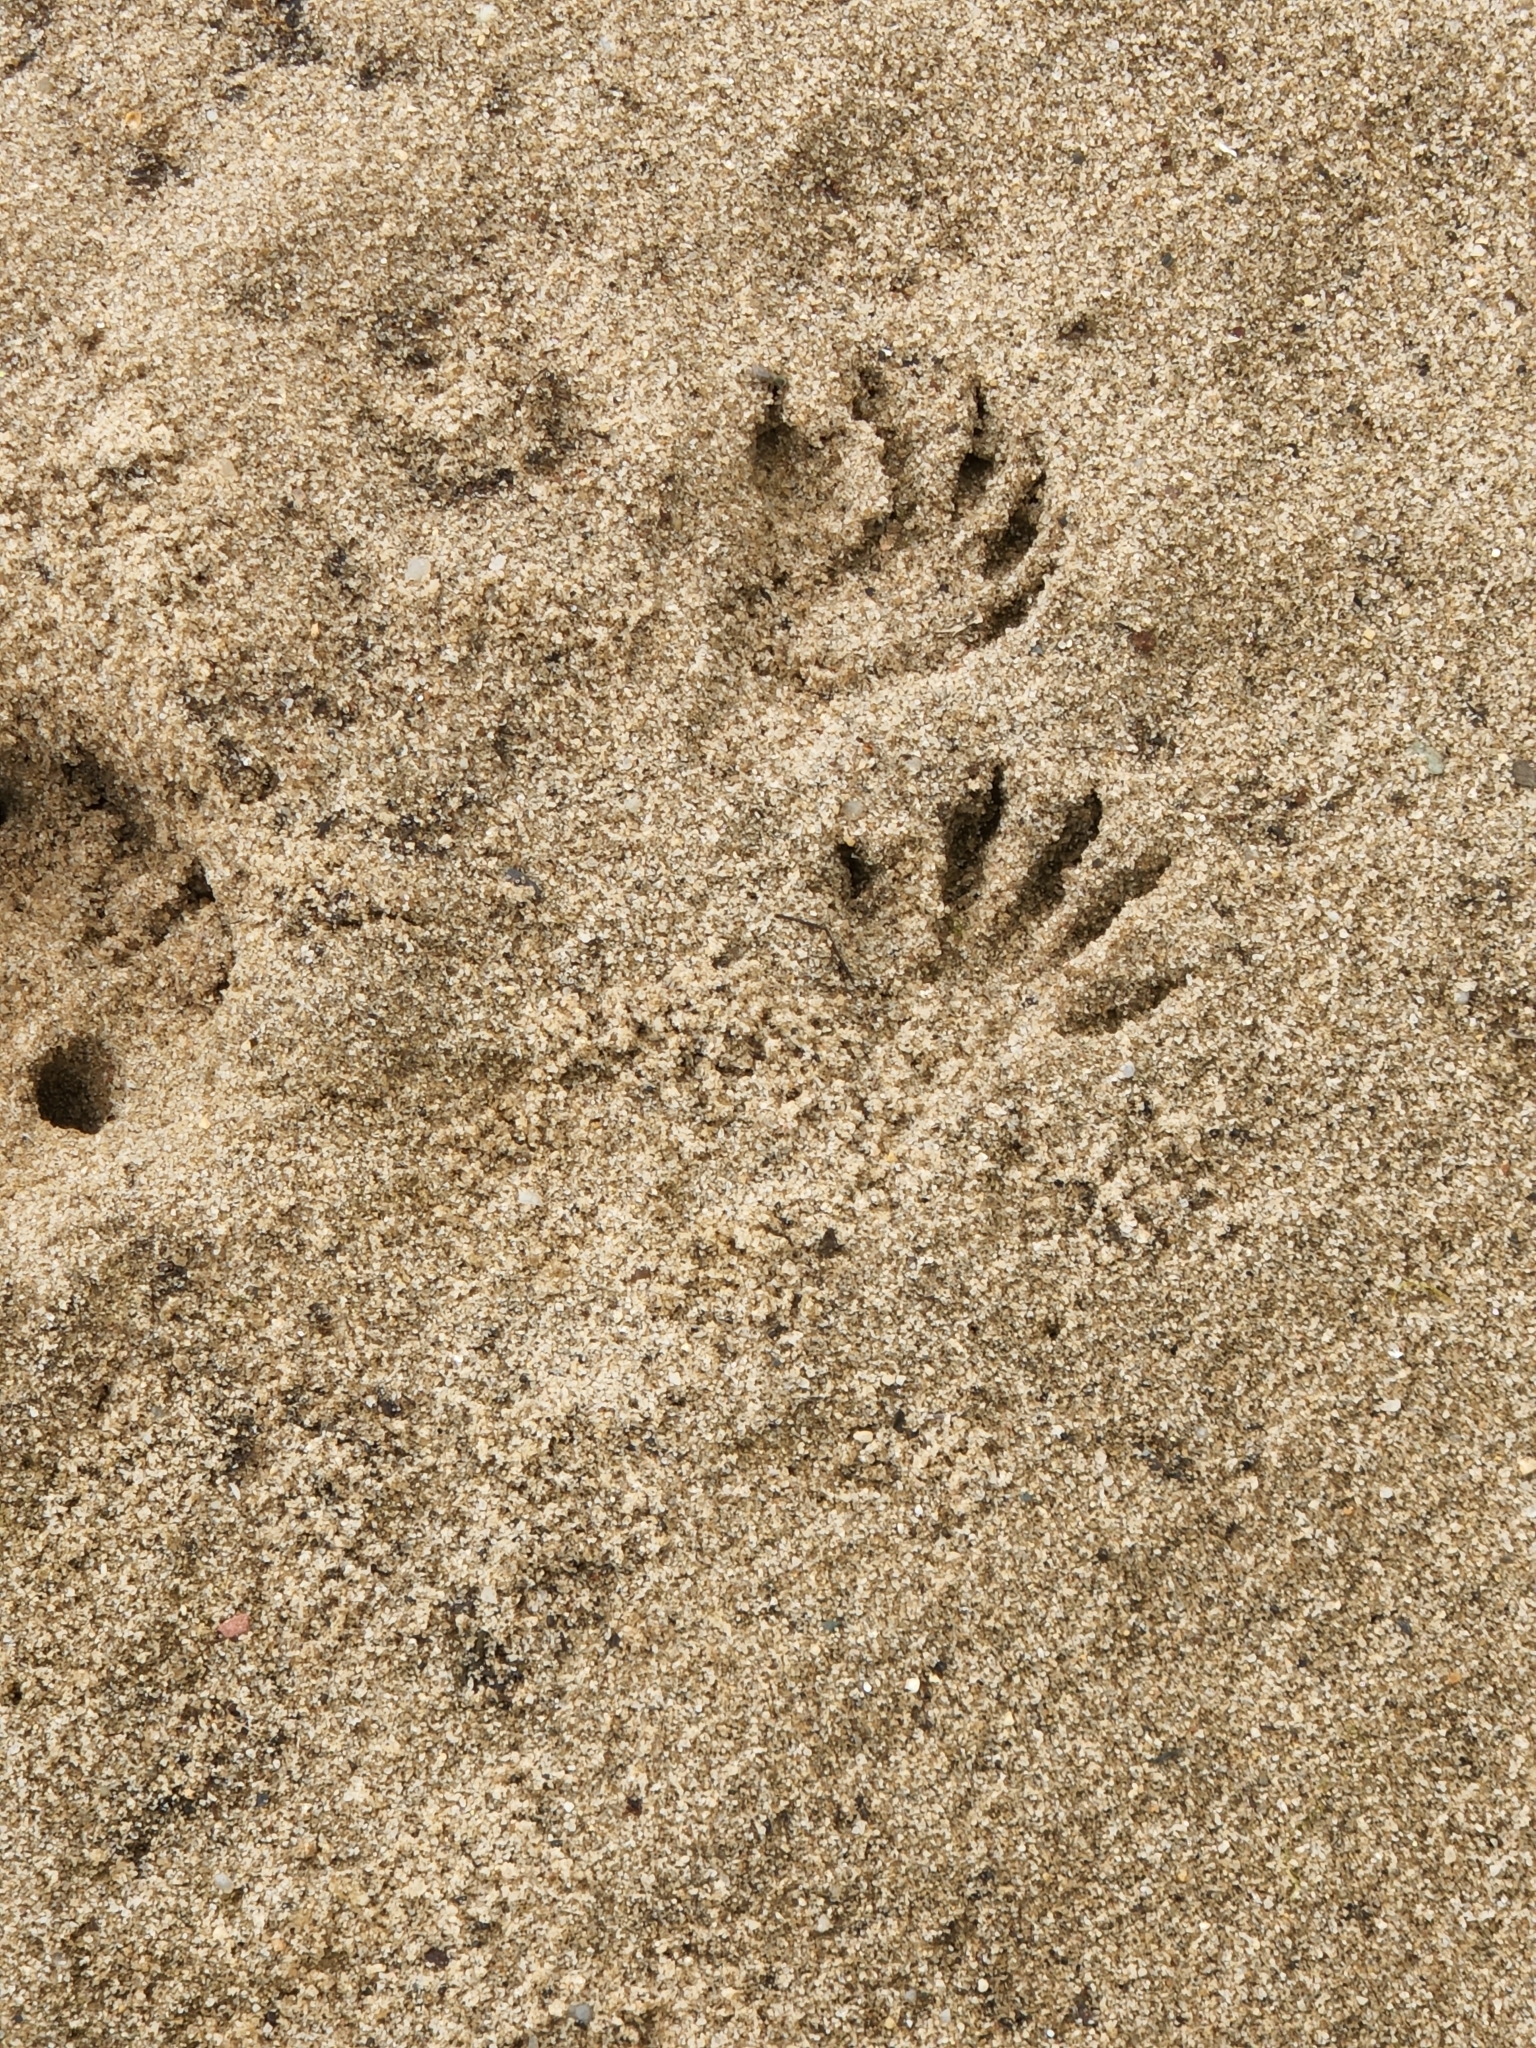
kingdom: Animalia
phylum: Chordata
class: Mammalia
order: Carnivora
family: Procyonidae
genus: Procyon
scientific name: Procyon lotor
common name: Raccoon
